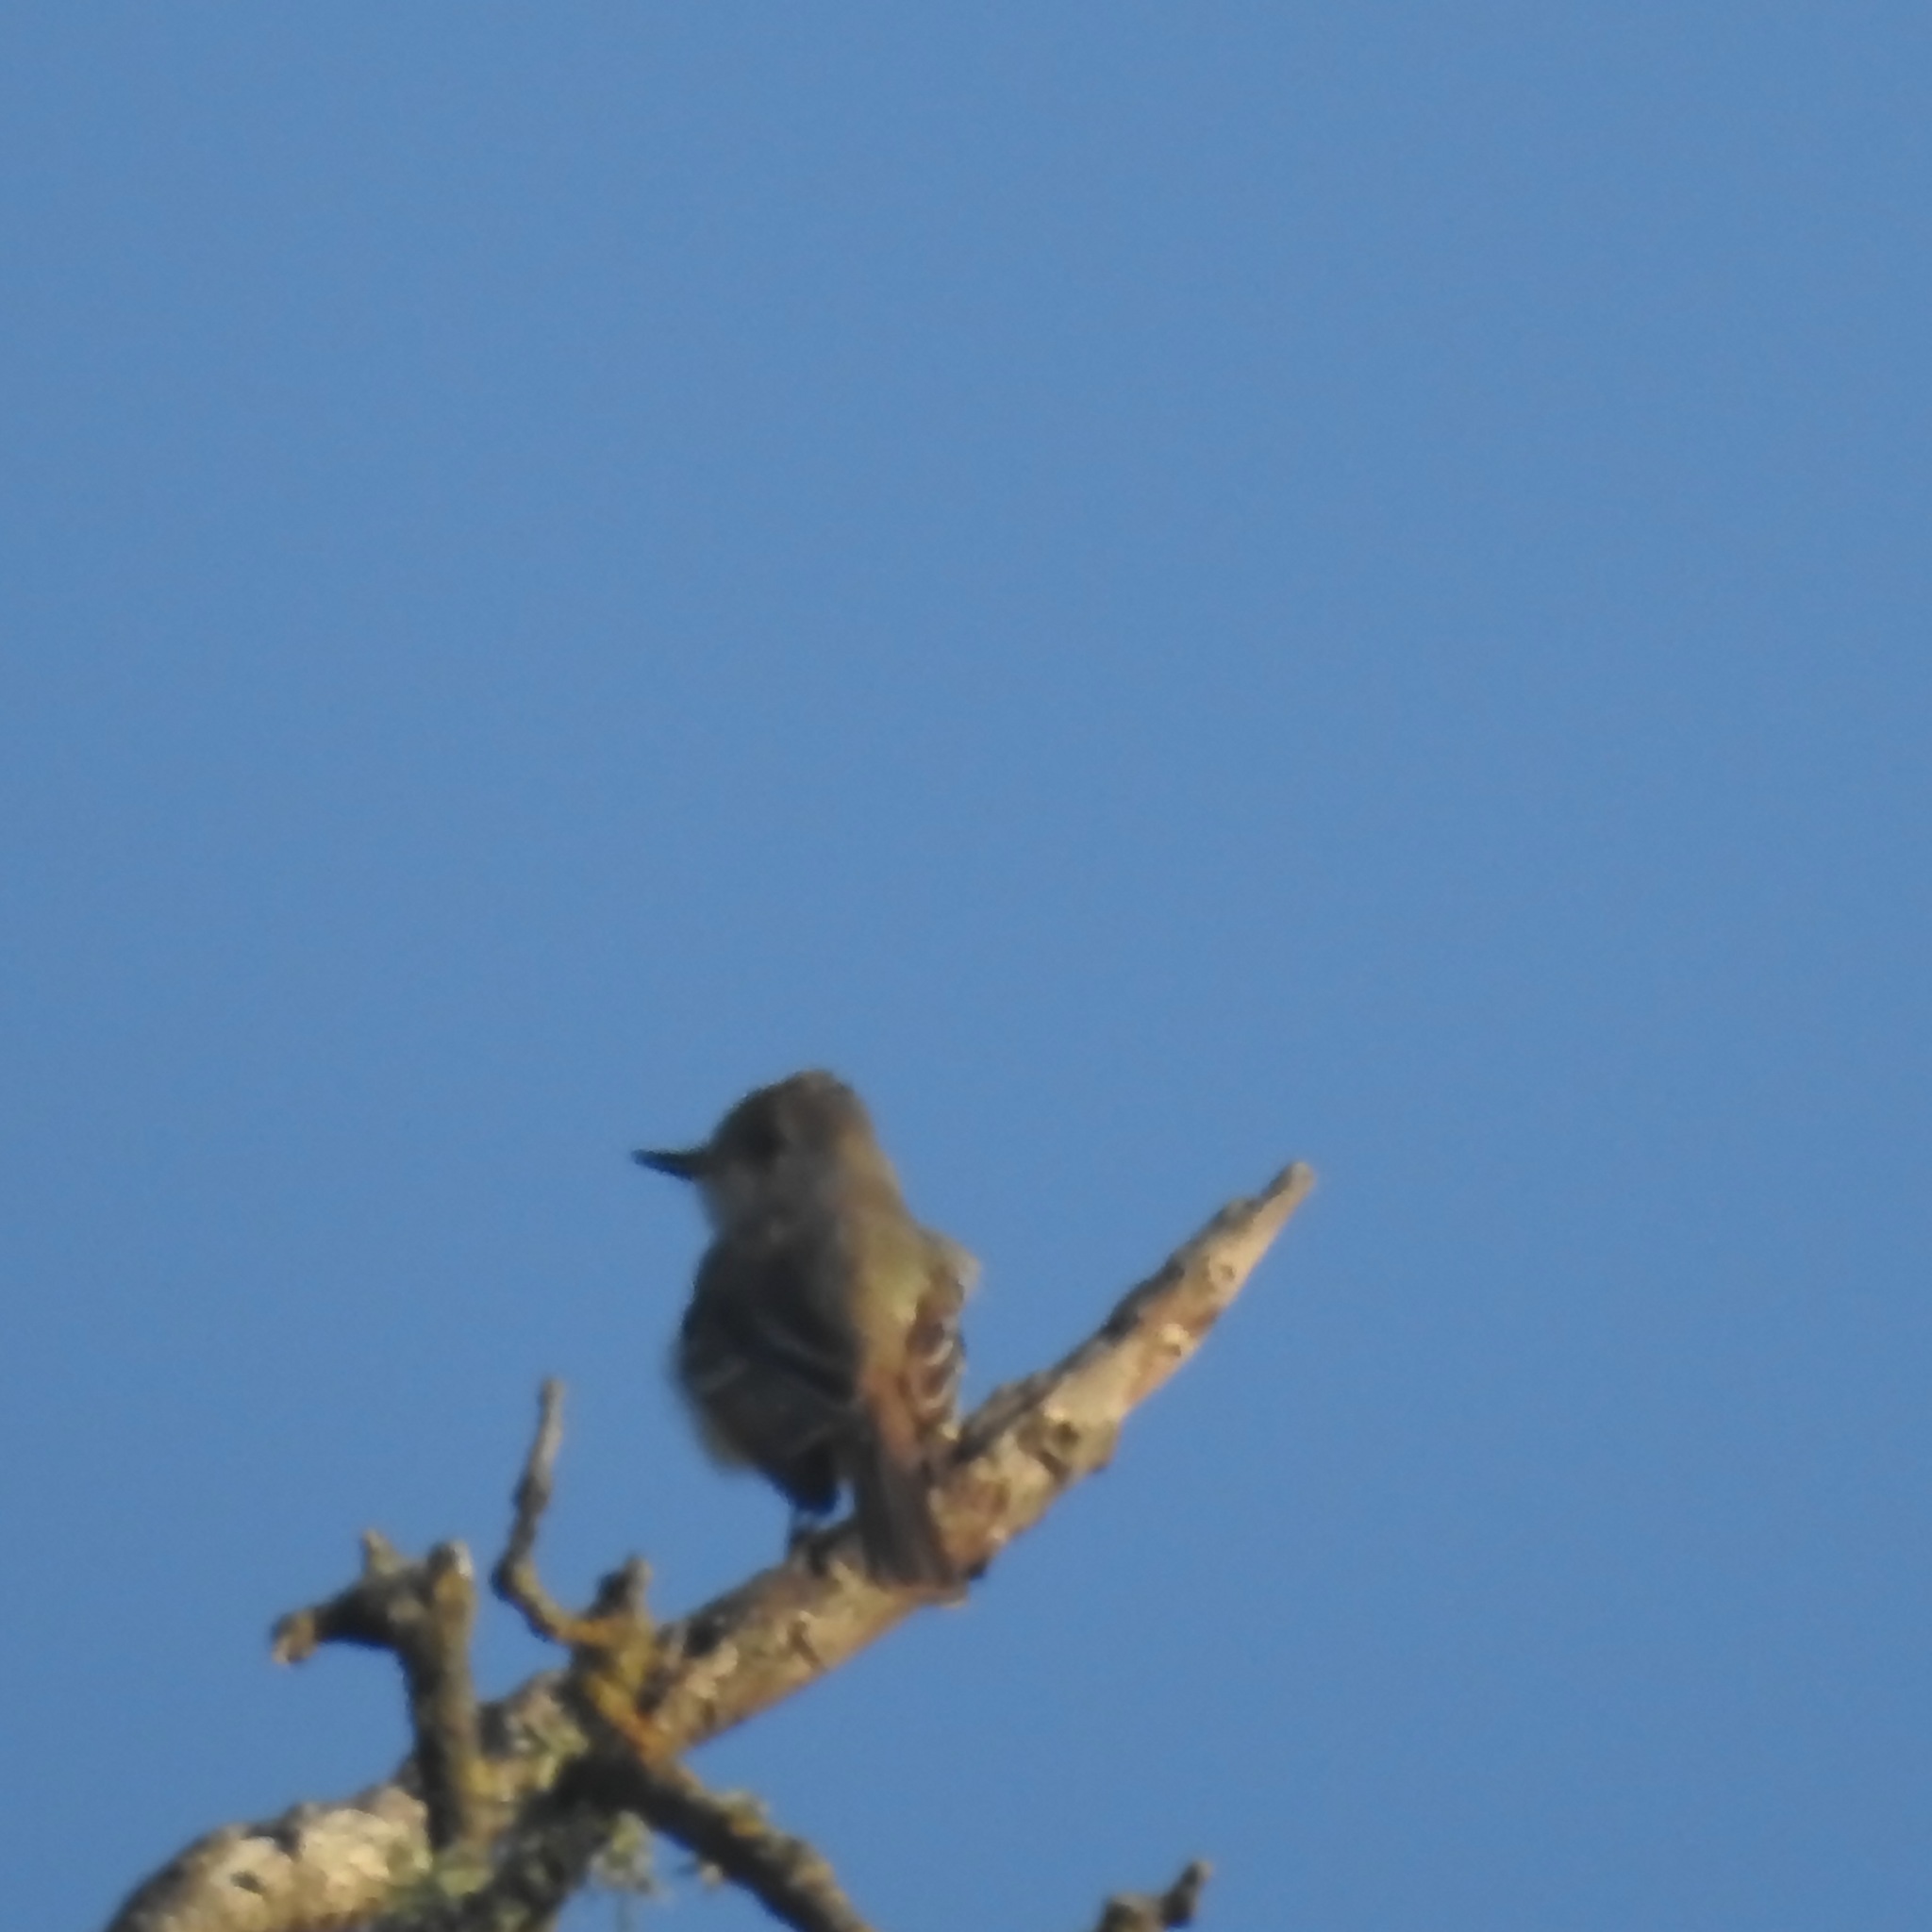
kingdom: Animalia
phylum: Chordata
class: Aves
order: Passeriformes
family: Tyrannidae
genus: Myiarchus
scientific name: Myiarchus cinerascens
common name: Ash-throated flycatcher
